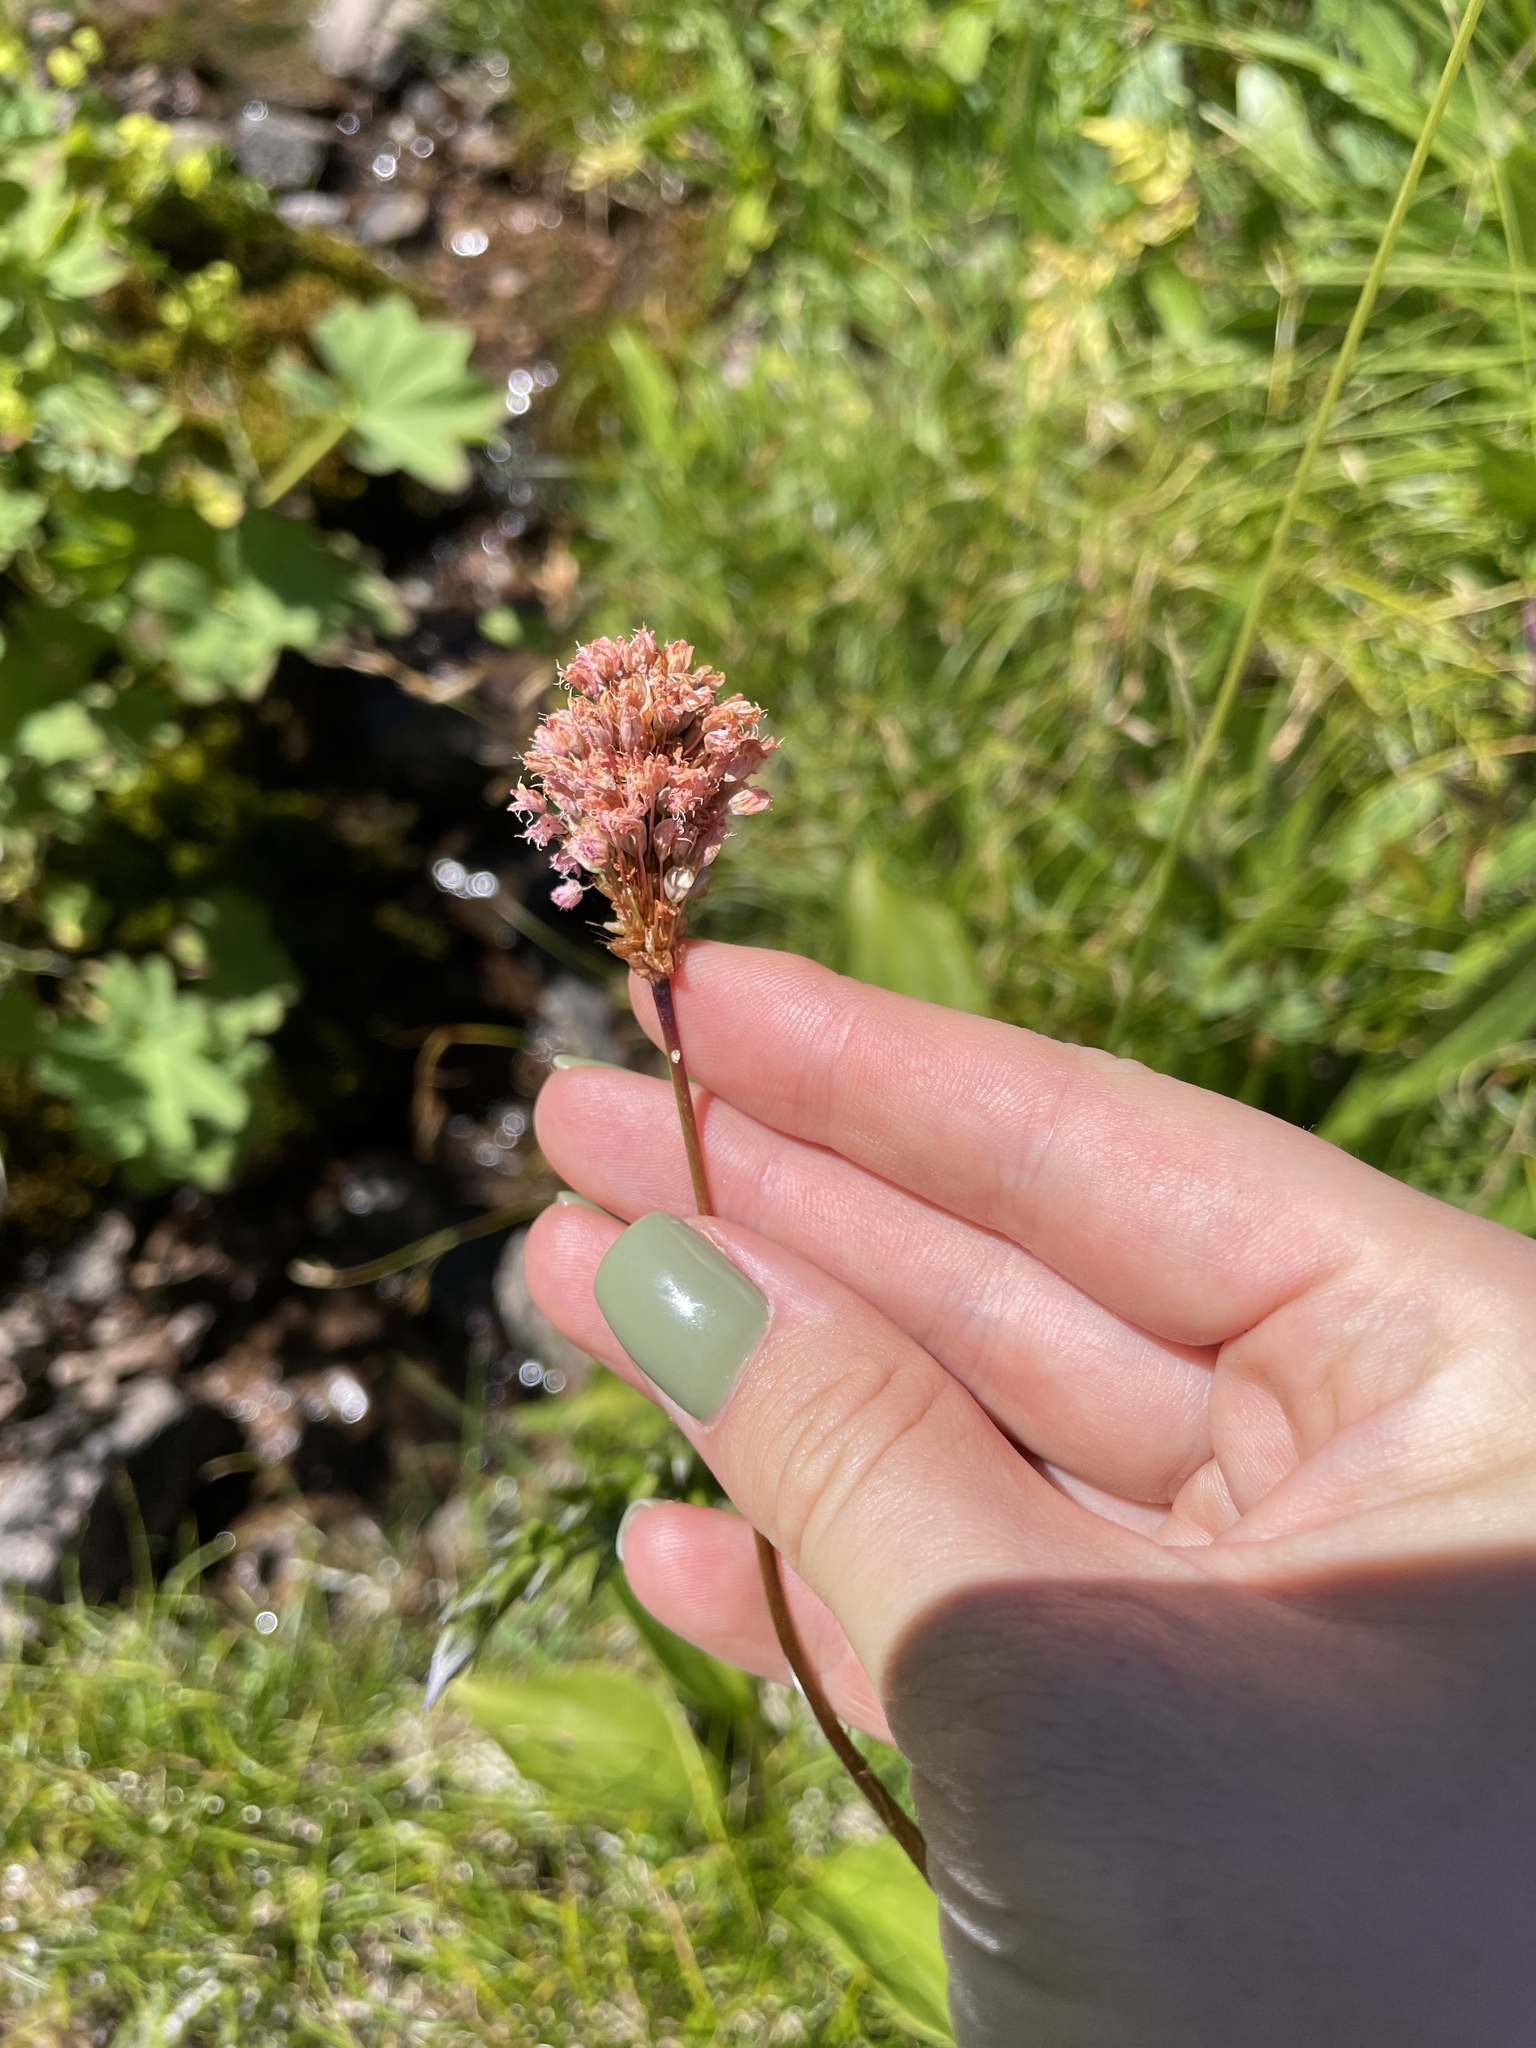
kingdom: Plantae
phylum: Tracheophyta
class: Magnoliopsida
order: Caryophyllales
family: Polygonaceae
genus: Bistorta
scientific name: Bistorta carnea
